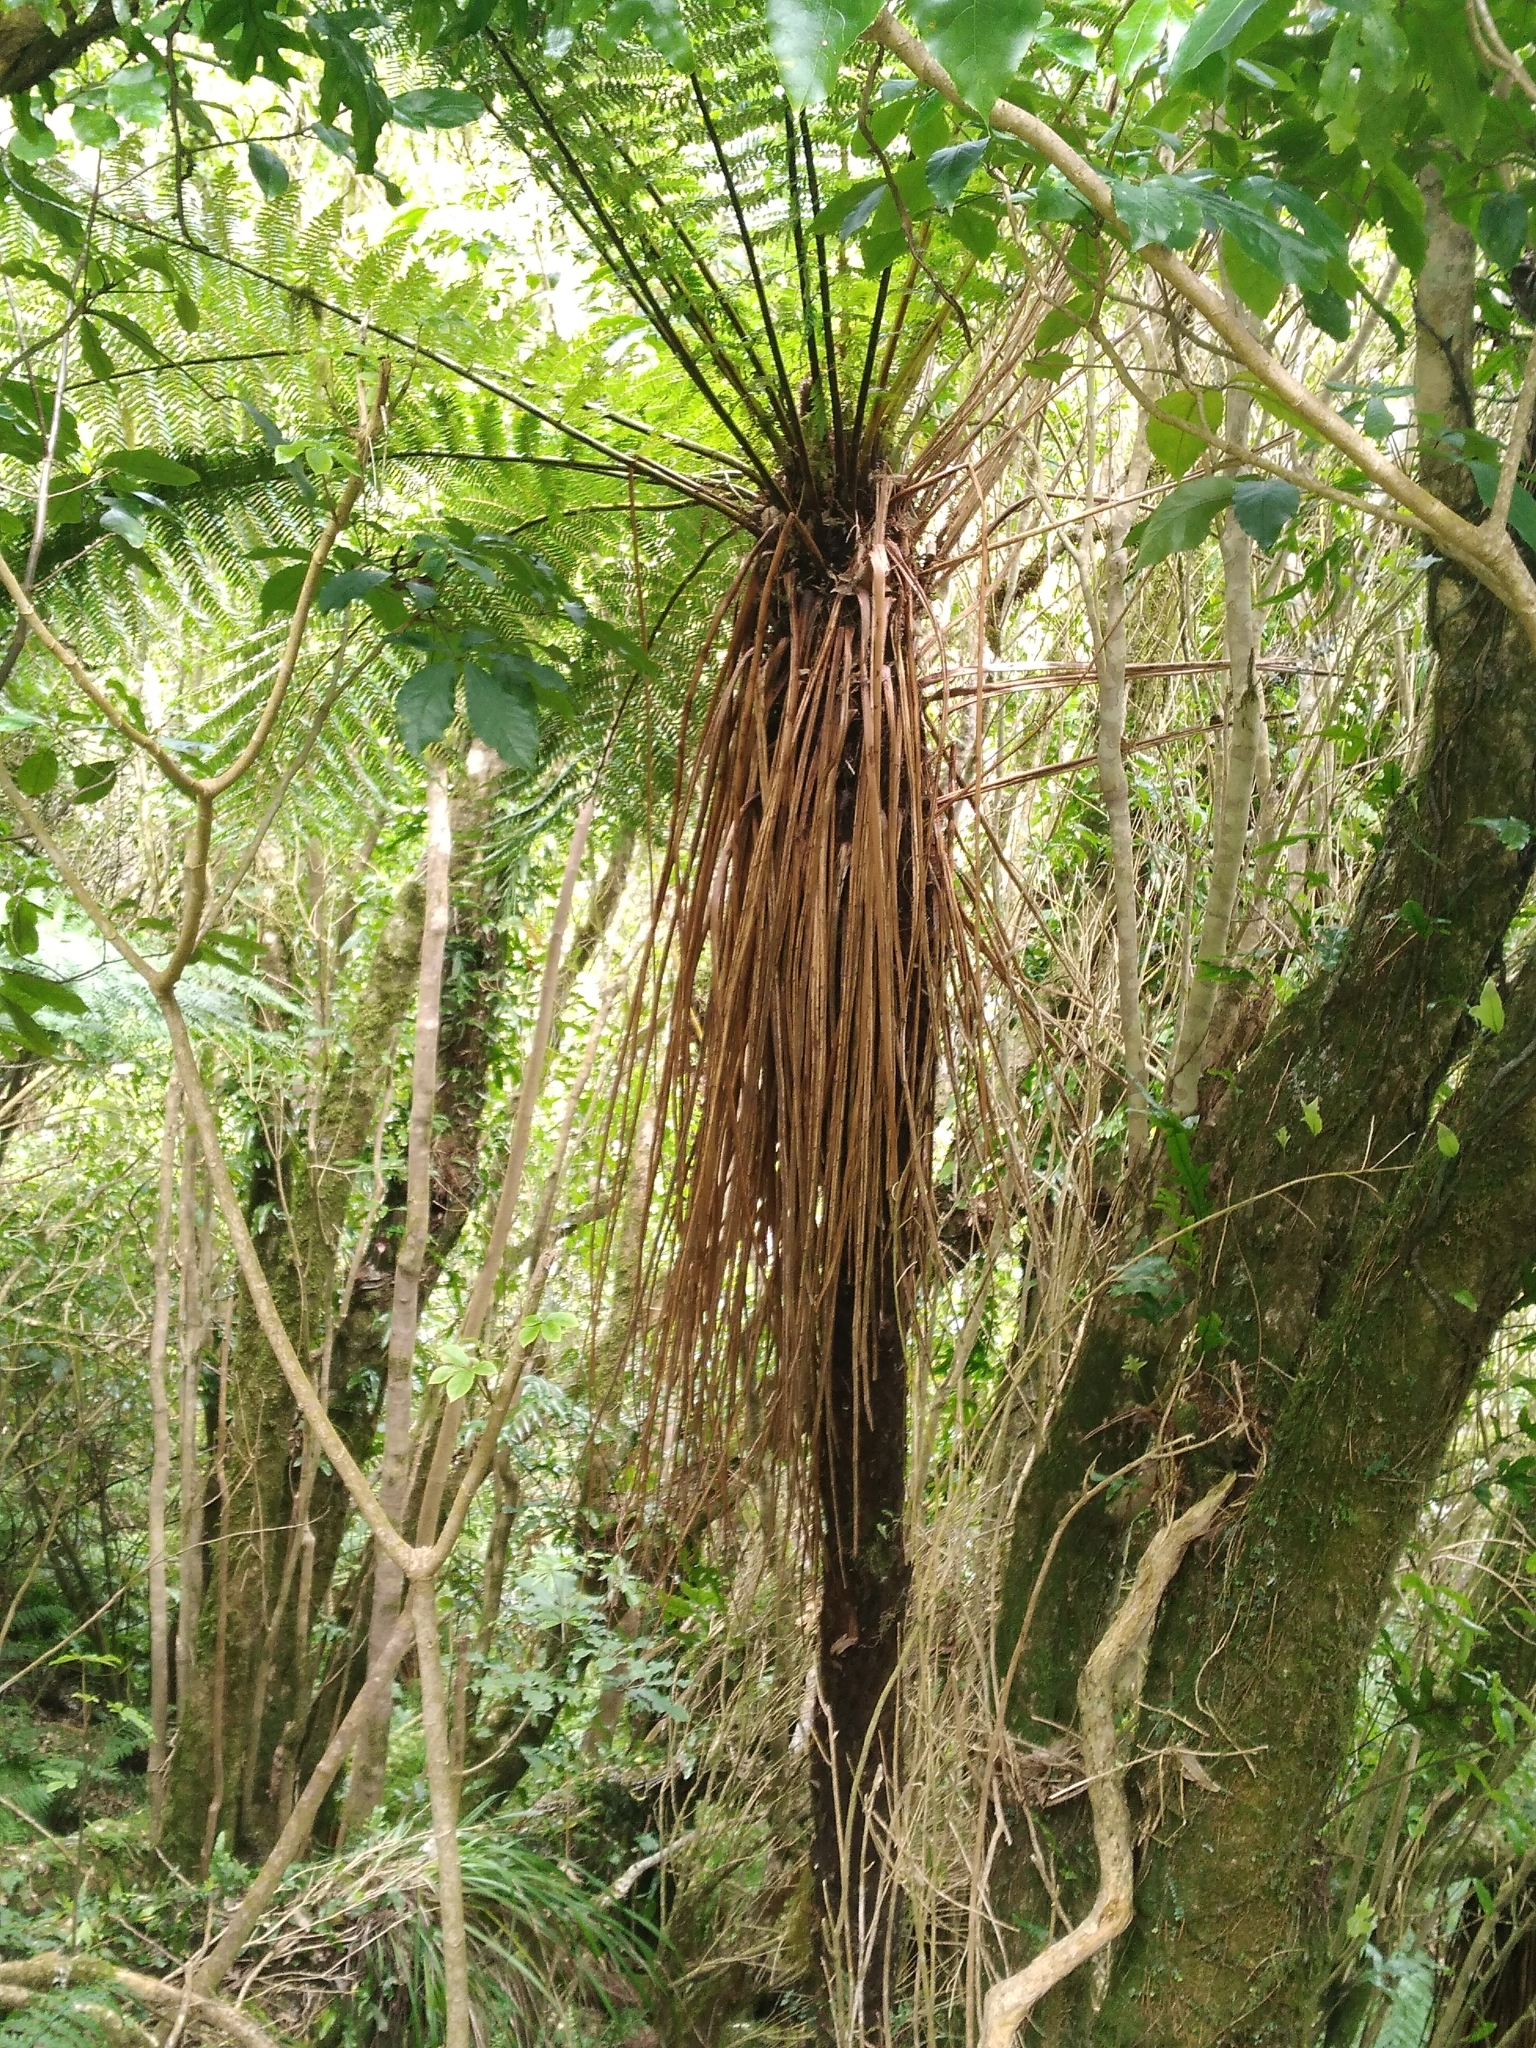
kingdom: Plantae
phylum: Tracheophyta
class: Polypodiopsida
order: Cyatheales
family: Cyatheaceae
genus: Alsophila
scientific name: Alsophila smithii
